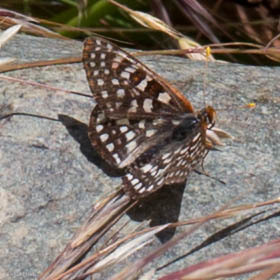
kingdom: Animalia
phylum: Arthropoda
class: Insecta
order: Lepidoptera
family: Nymphalidae
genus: Occidryas
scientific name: Occidryas chalcedona
